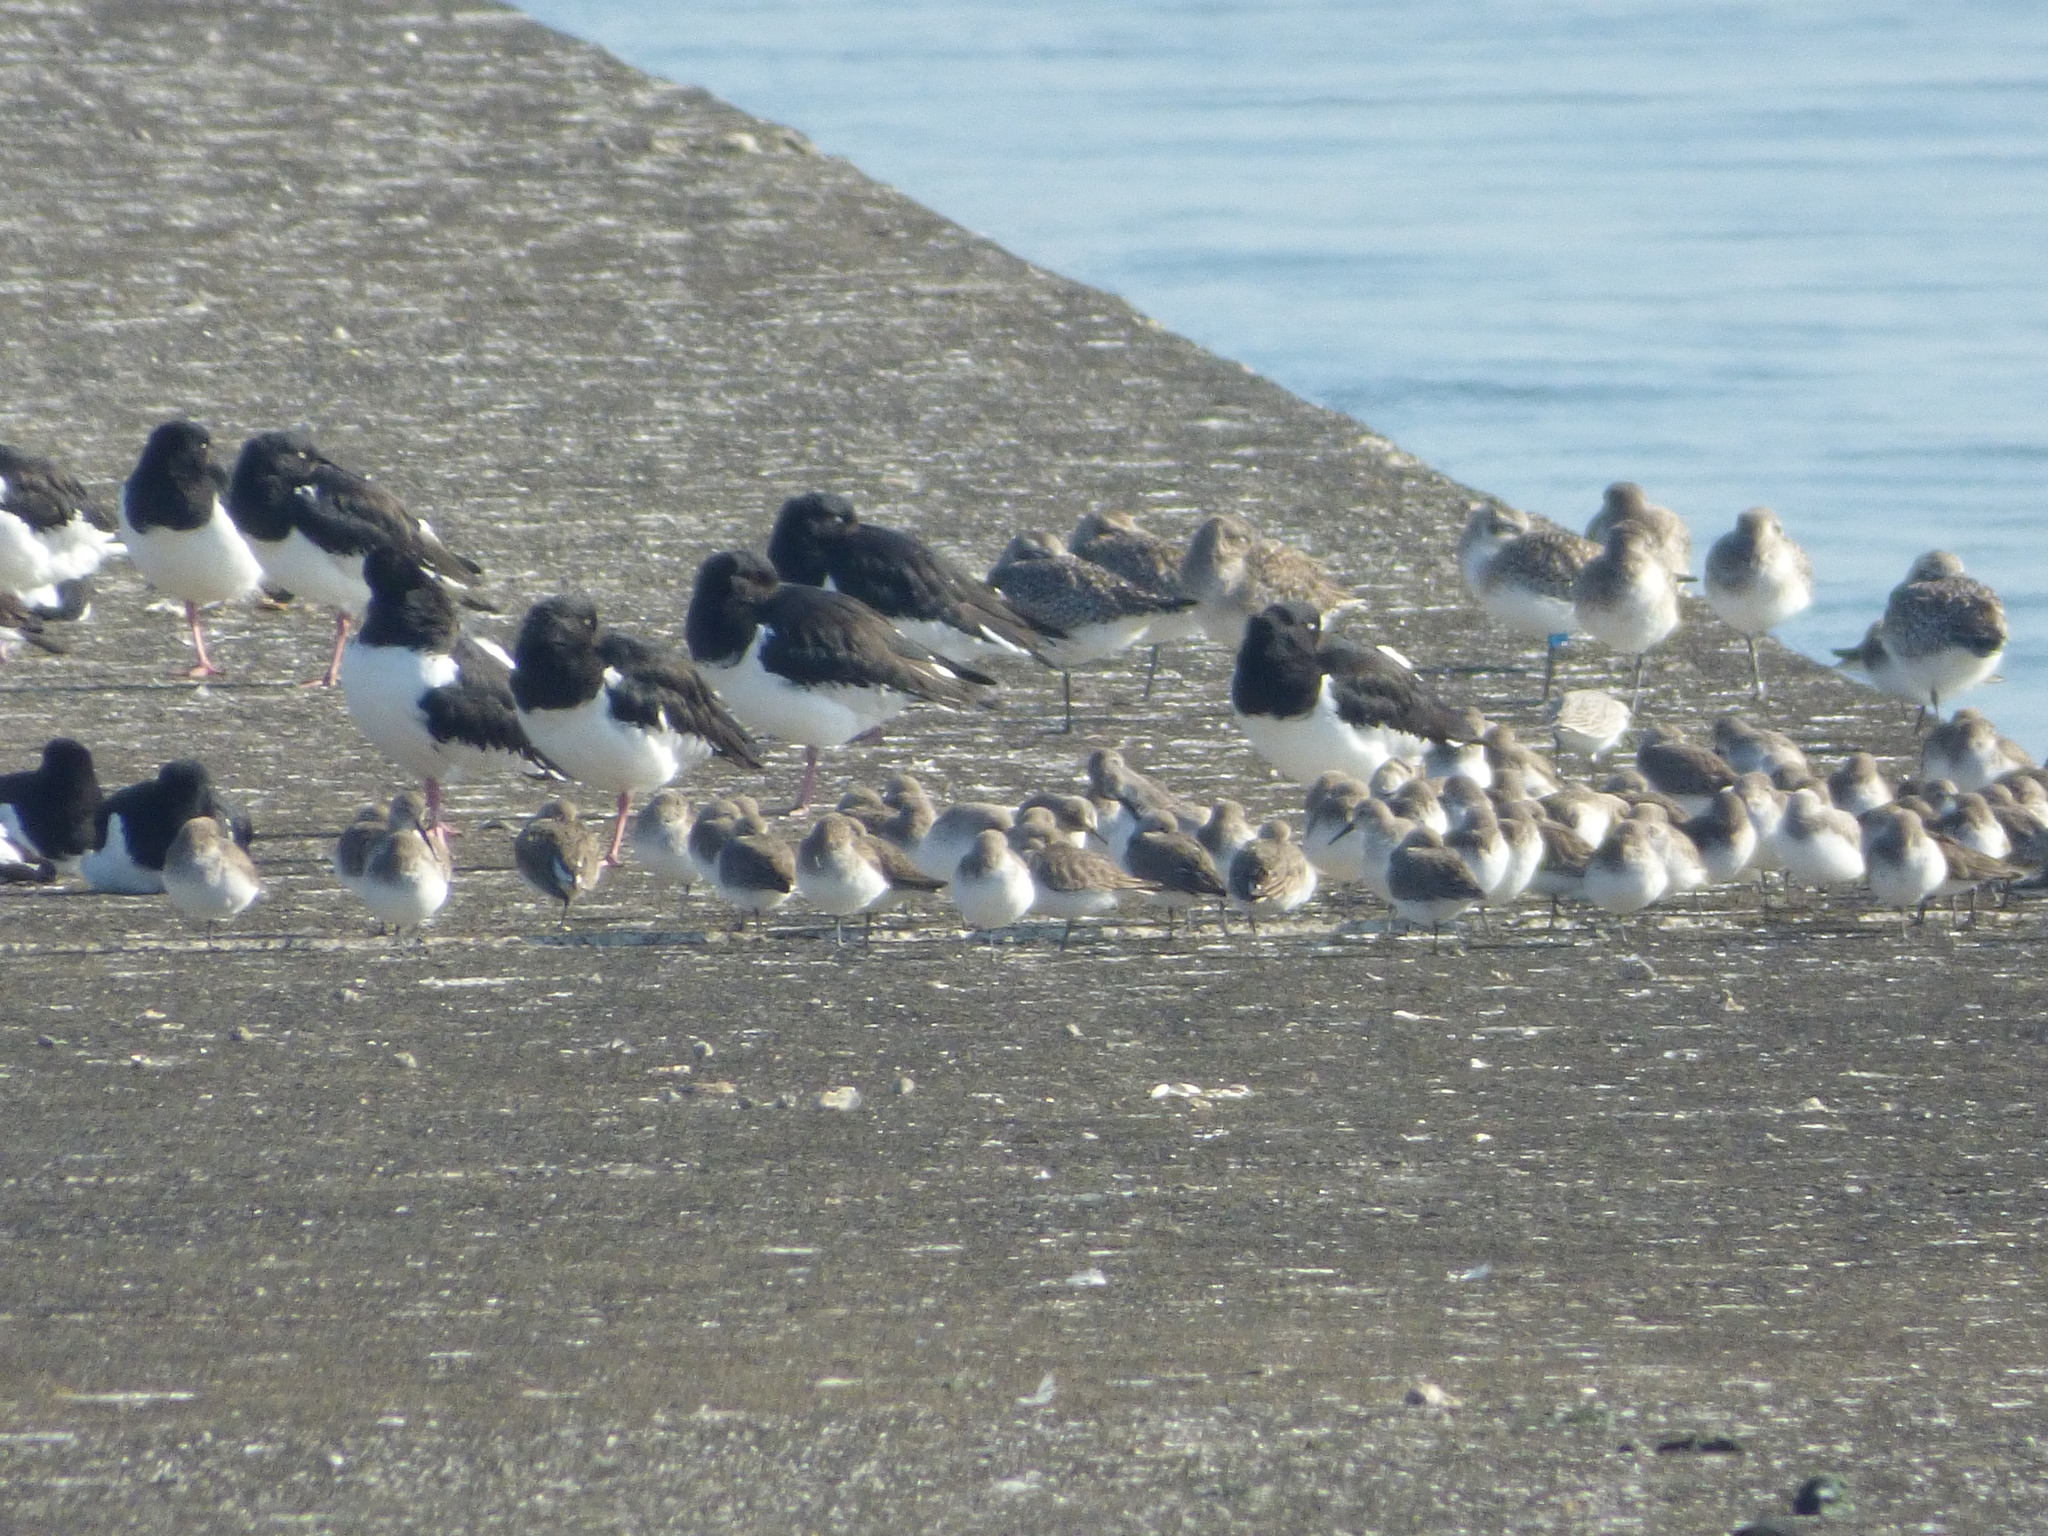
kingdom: Animalia
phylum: Chordata
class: Aves
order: Charadriiformes
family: Haematopodidae
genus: Haematopus
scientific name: Haematopus ostralegus
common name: Eurasian oystercatcher
